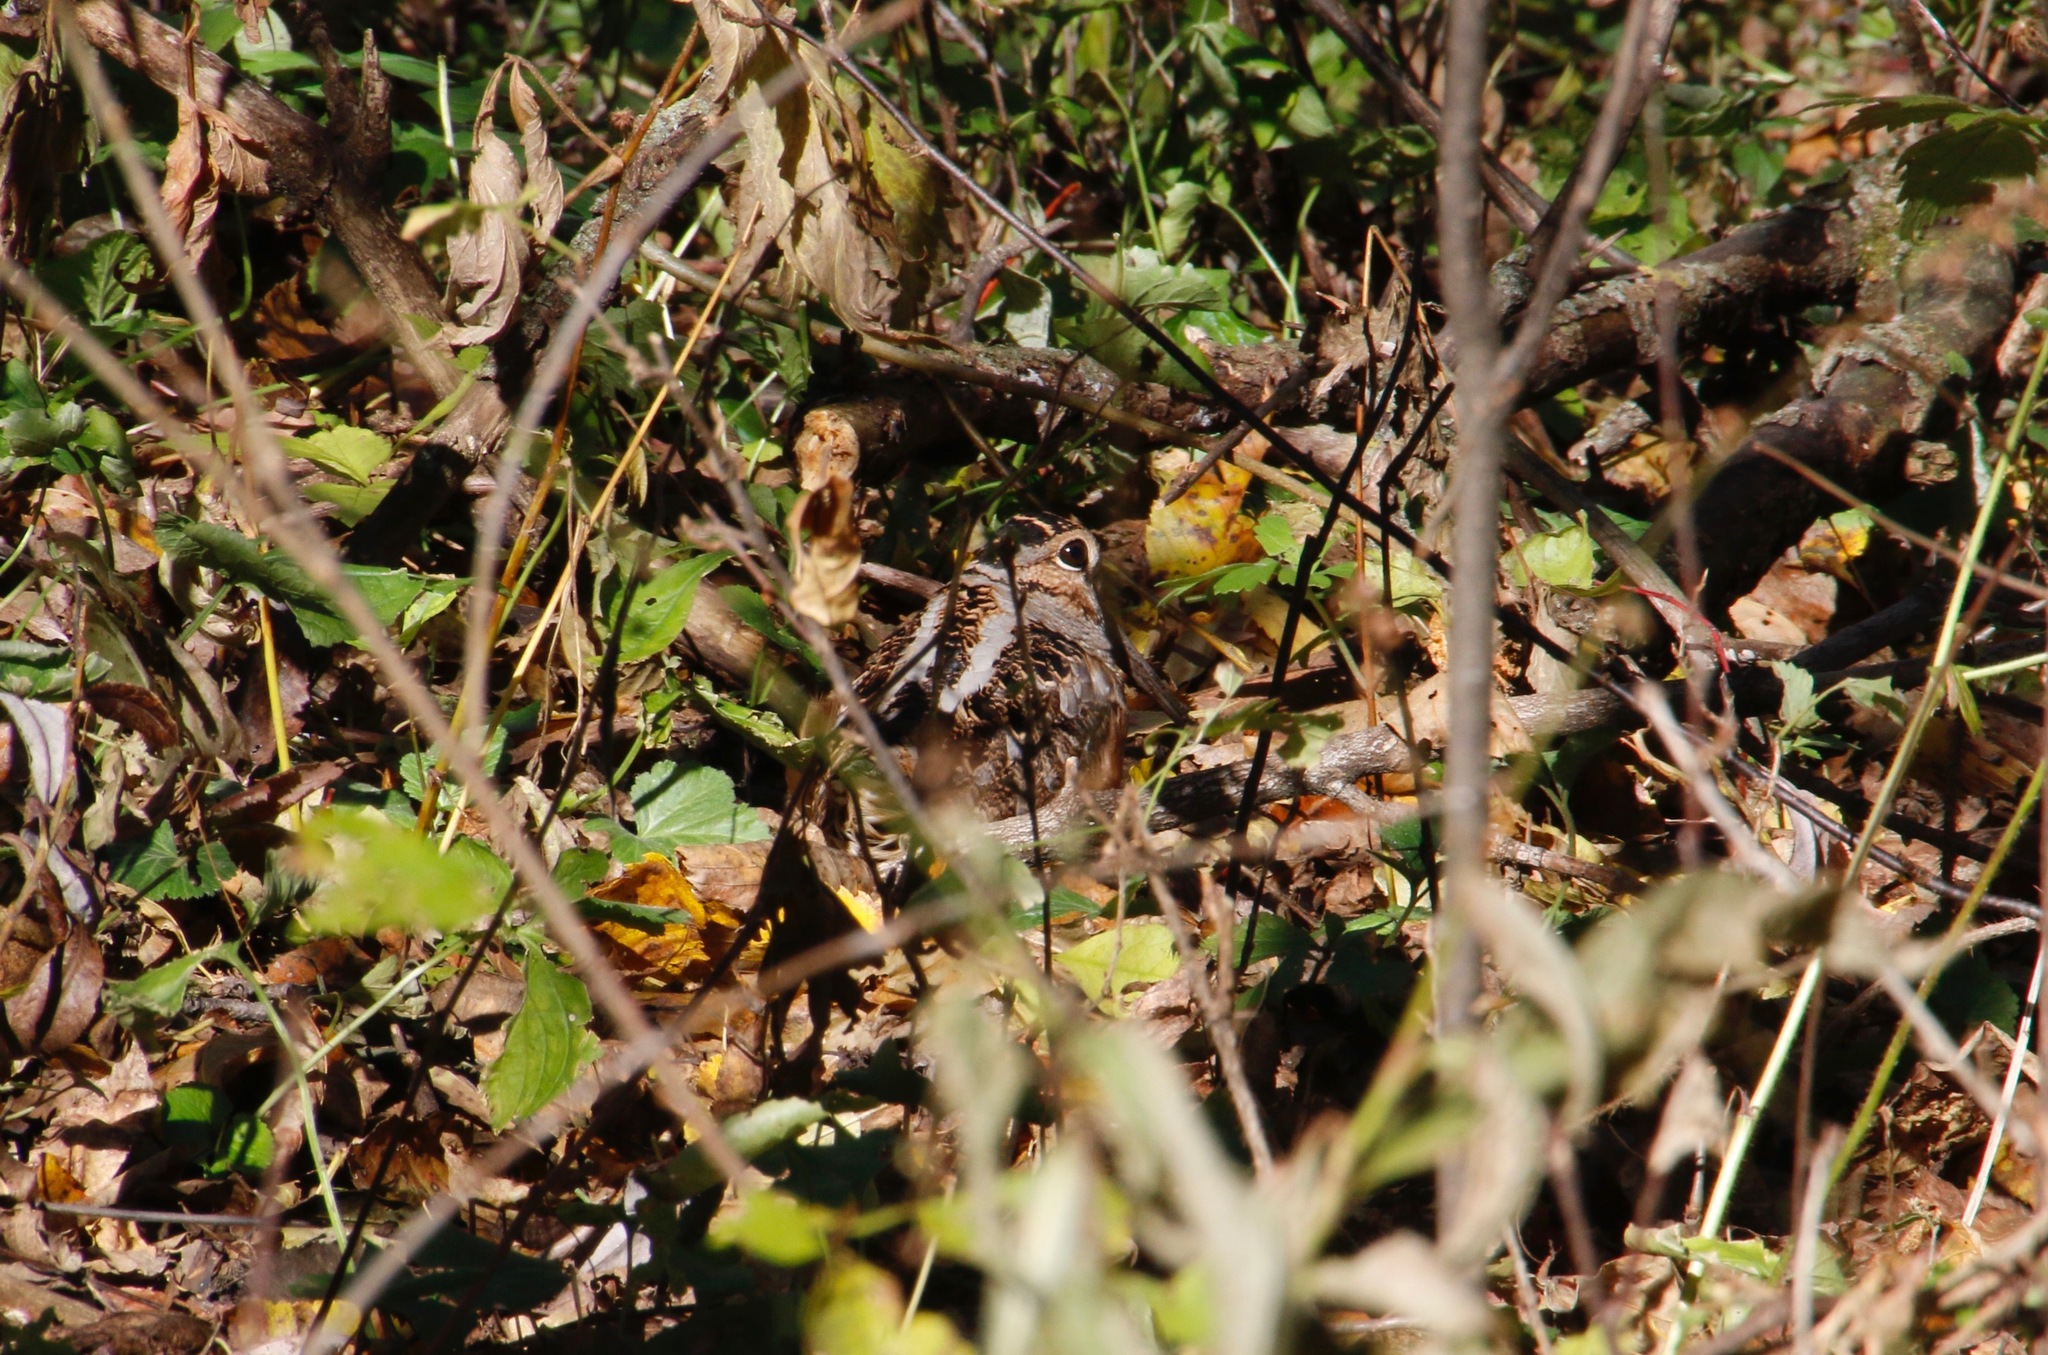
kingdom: Animalia
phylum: Chordata
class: Aves
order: Charadriiformes
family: Scolopacidae
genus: Scolopax
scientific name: Scolopax minor
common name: American woodcock
